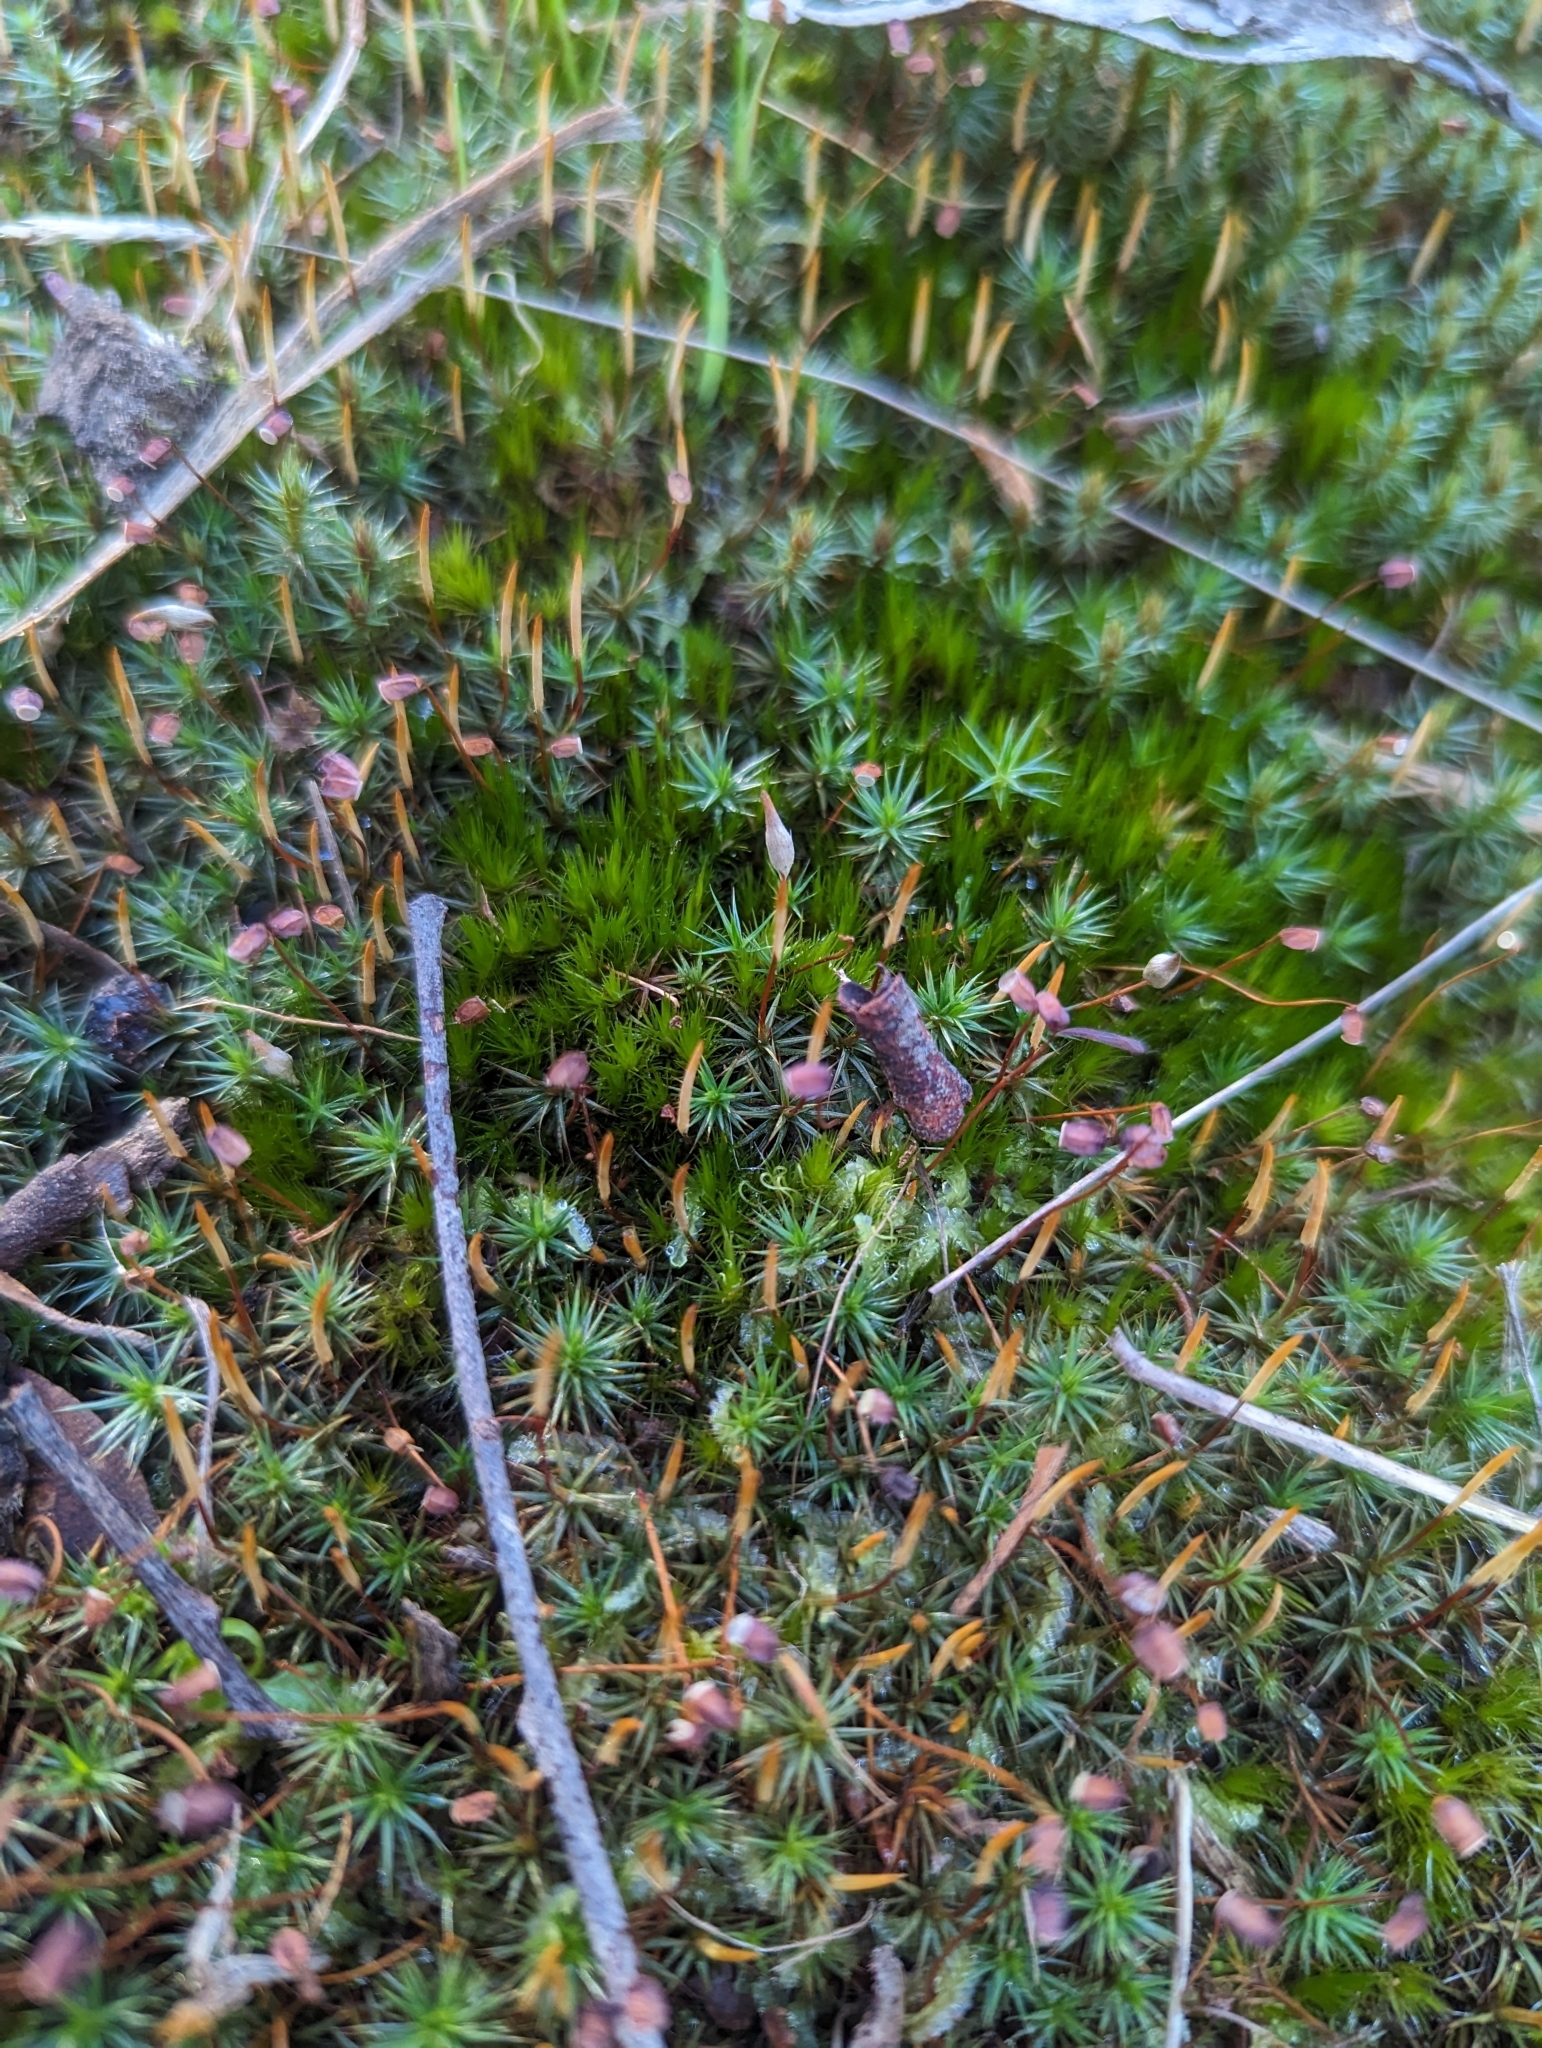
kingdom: Plantae
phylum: Bryophyta
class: Polytrichopsida
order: Polytrichales
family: Polytrichaceae
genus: Polytrichum
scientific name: Polytrichum juniperinum
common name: Juniper haircap moss
